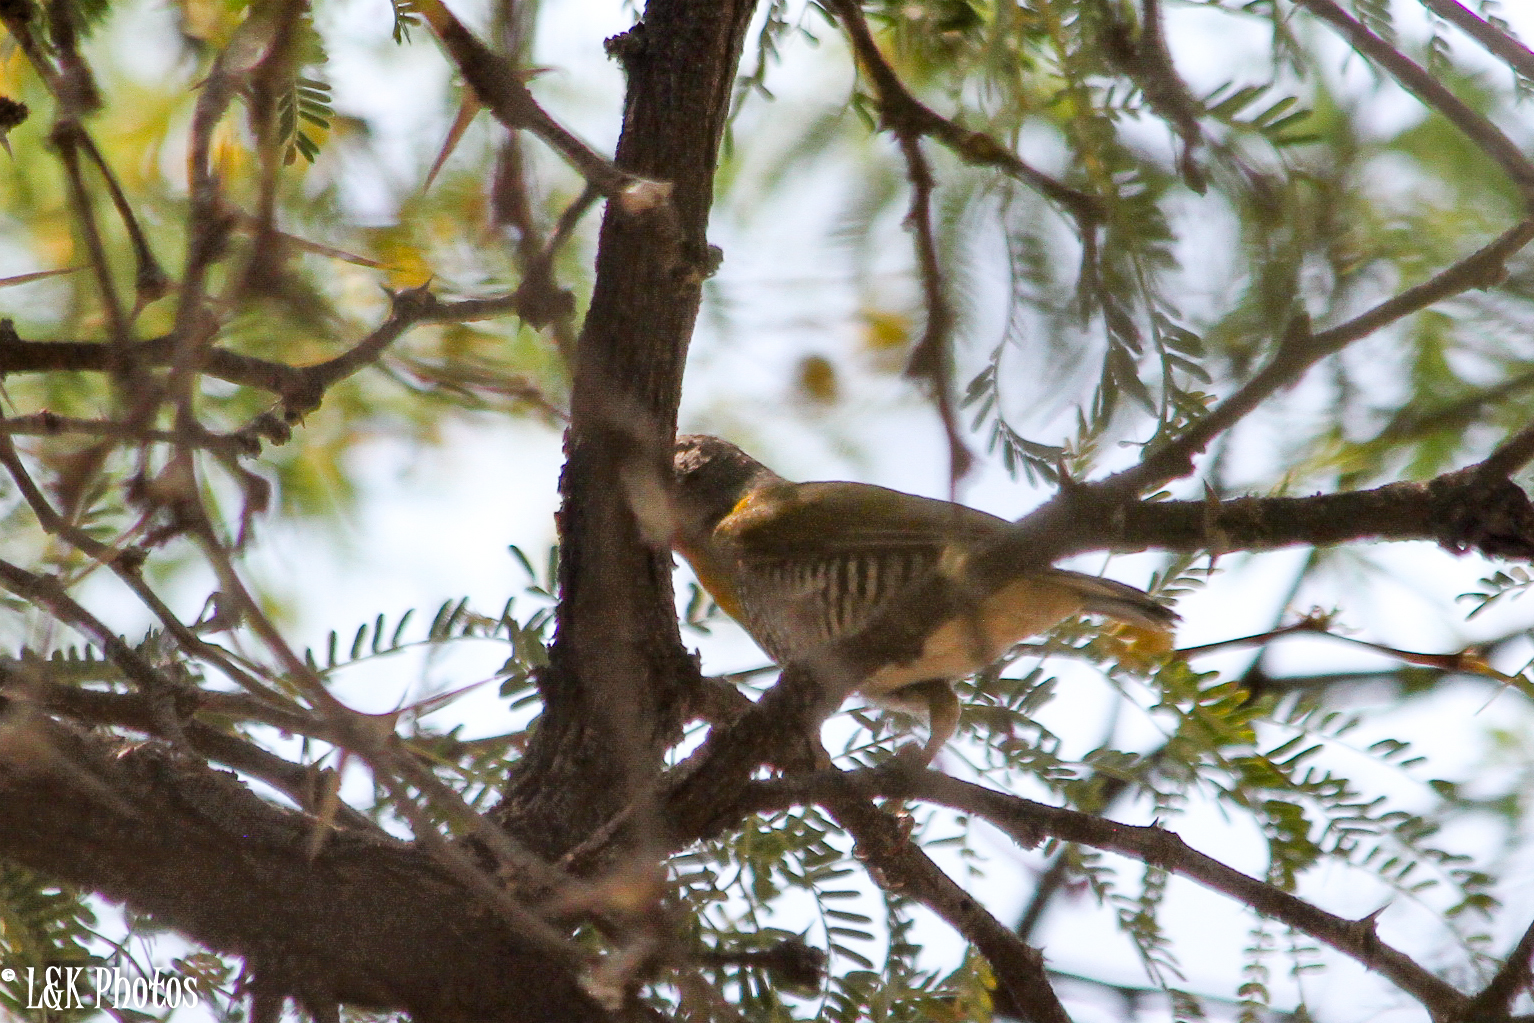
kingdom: Animalia
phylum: Chordata
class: Aves
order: Passeriformes
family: Estrildidae
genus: Pytilia
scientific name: Pytilia melba
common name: Green-winged pytilia
